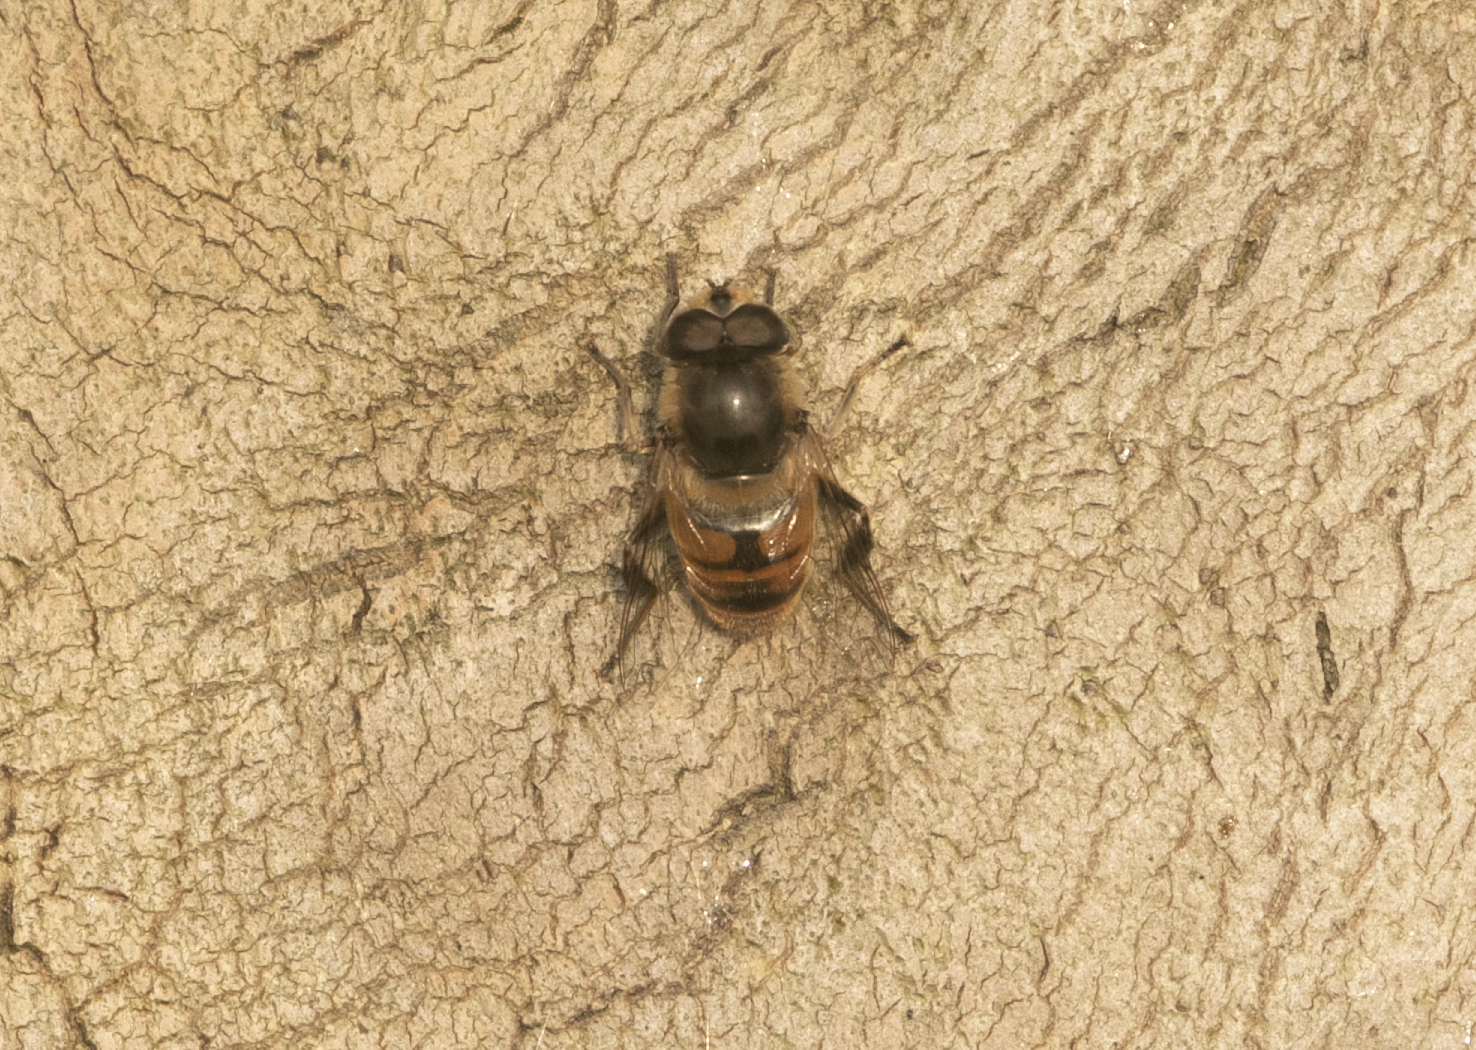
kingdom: Animalia
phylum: Arthropoda
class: Insecta
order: Diptera
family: Syrphidae
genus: Eristalis
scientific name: Eristalis tenax
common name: Drone fly
